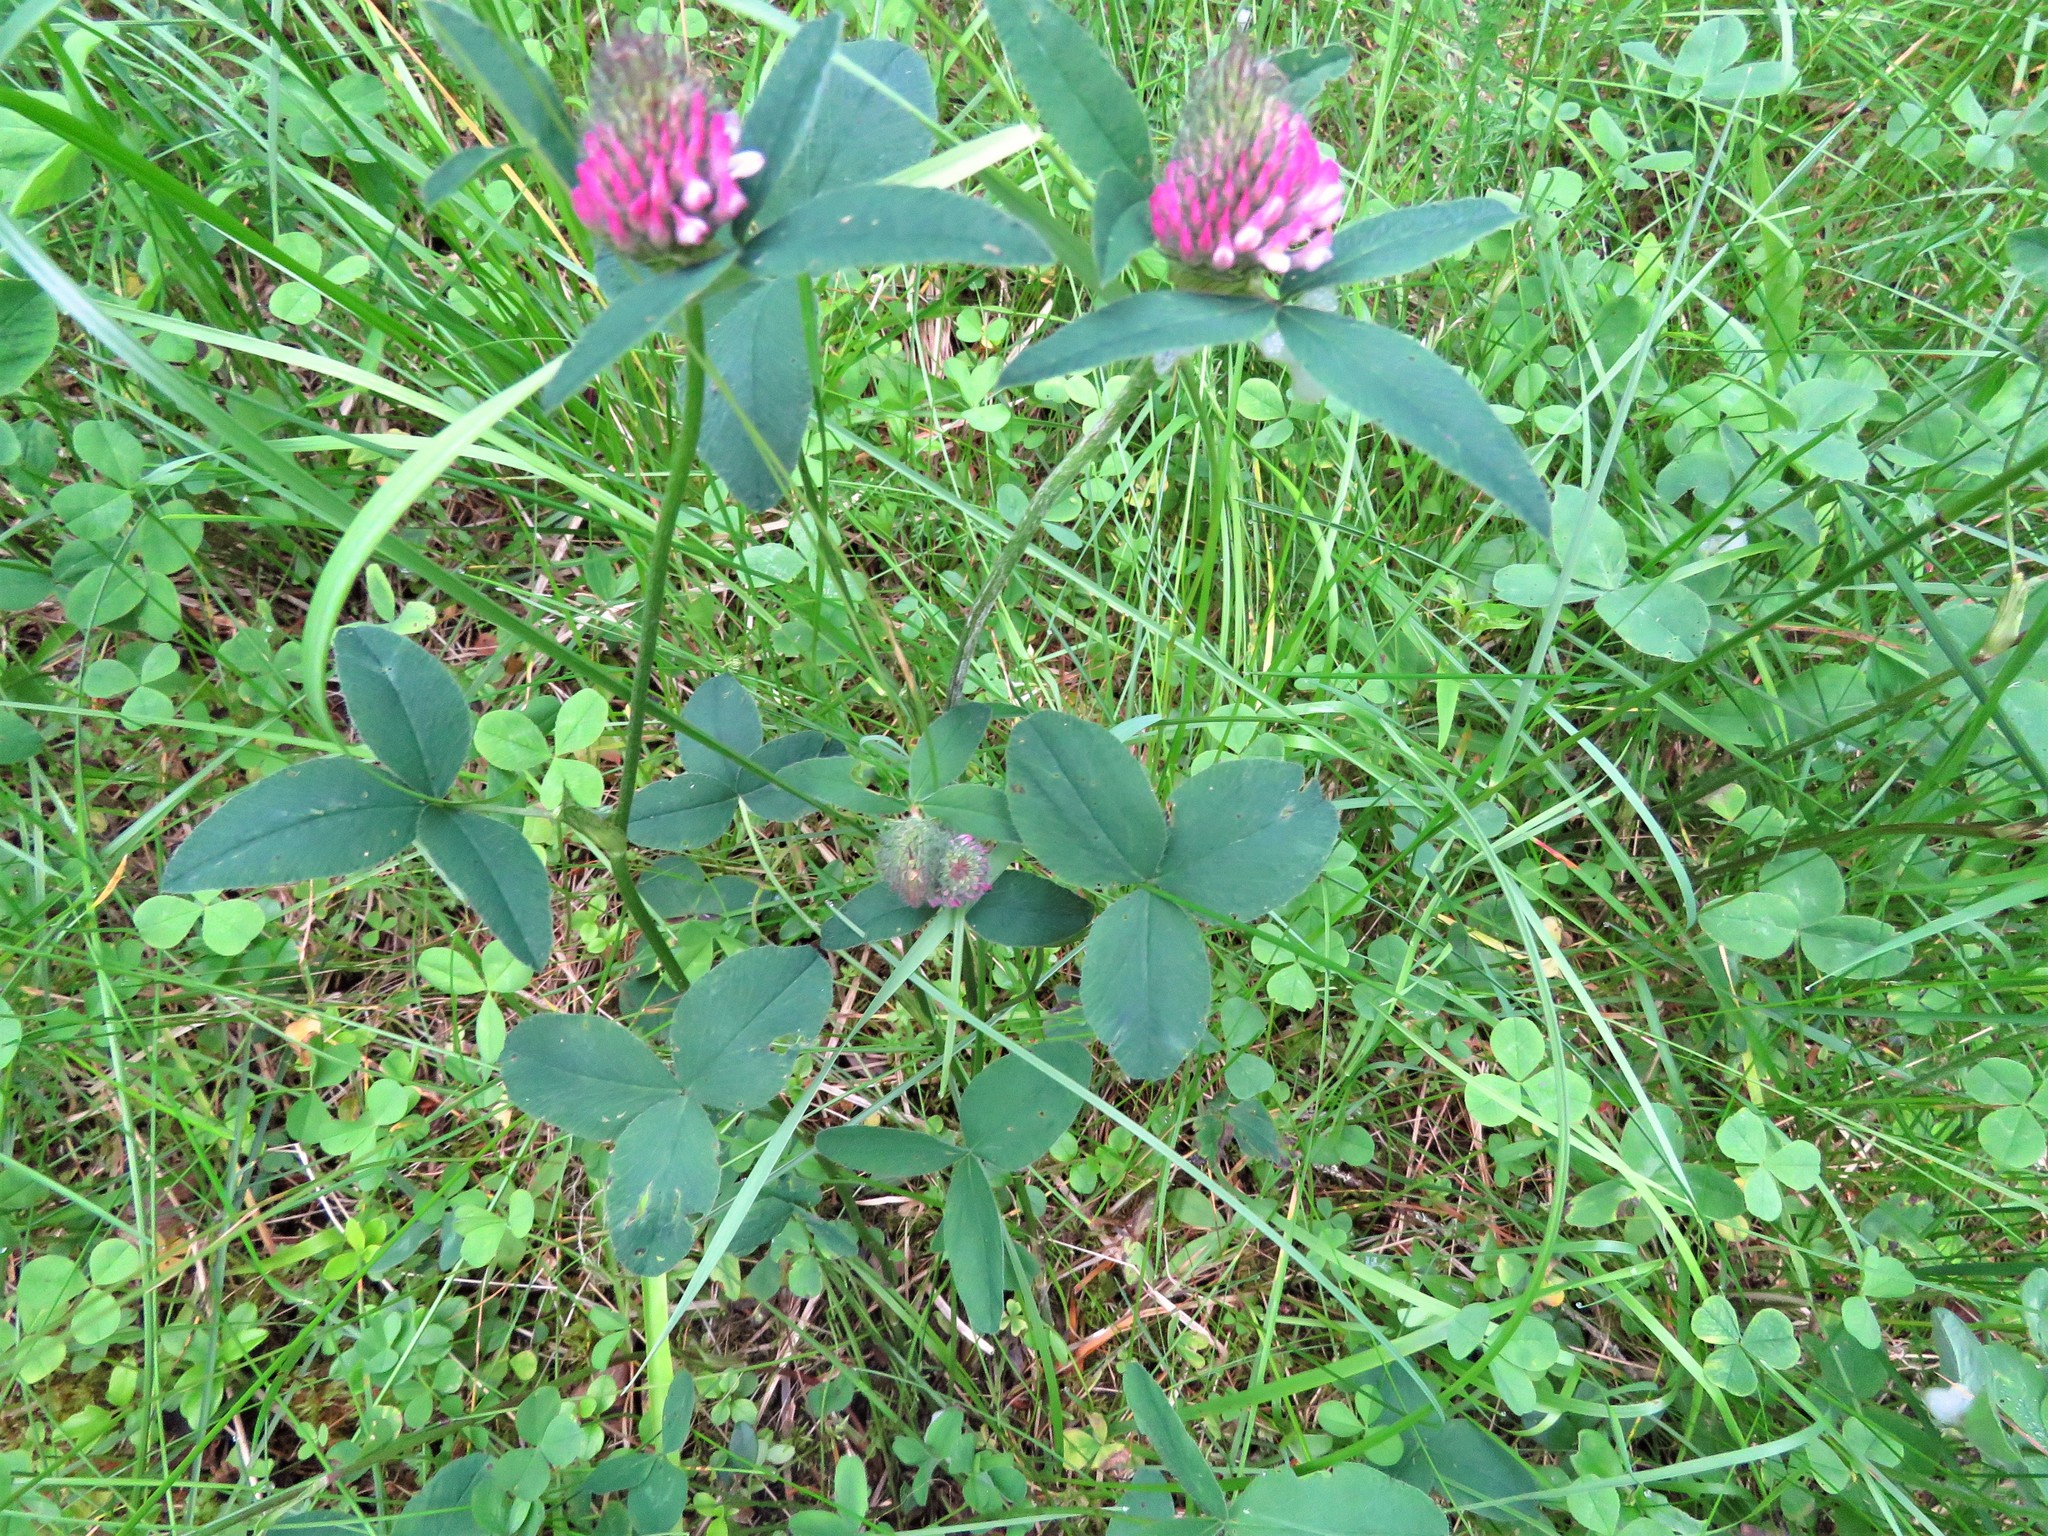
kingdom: Plantae
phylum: Tracheophyta
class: Magnoliopsida
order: Fabales
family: Fabaceae
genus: Trifolium
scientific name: Trifolium pratense
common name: Red clover
